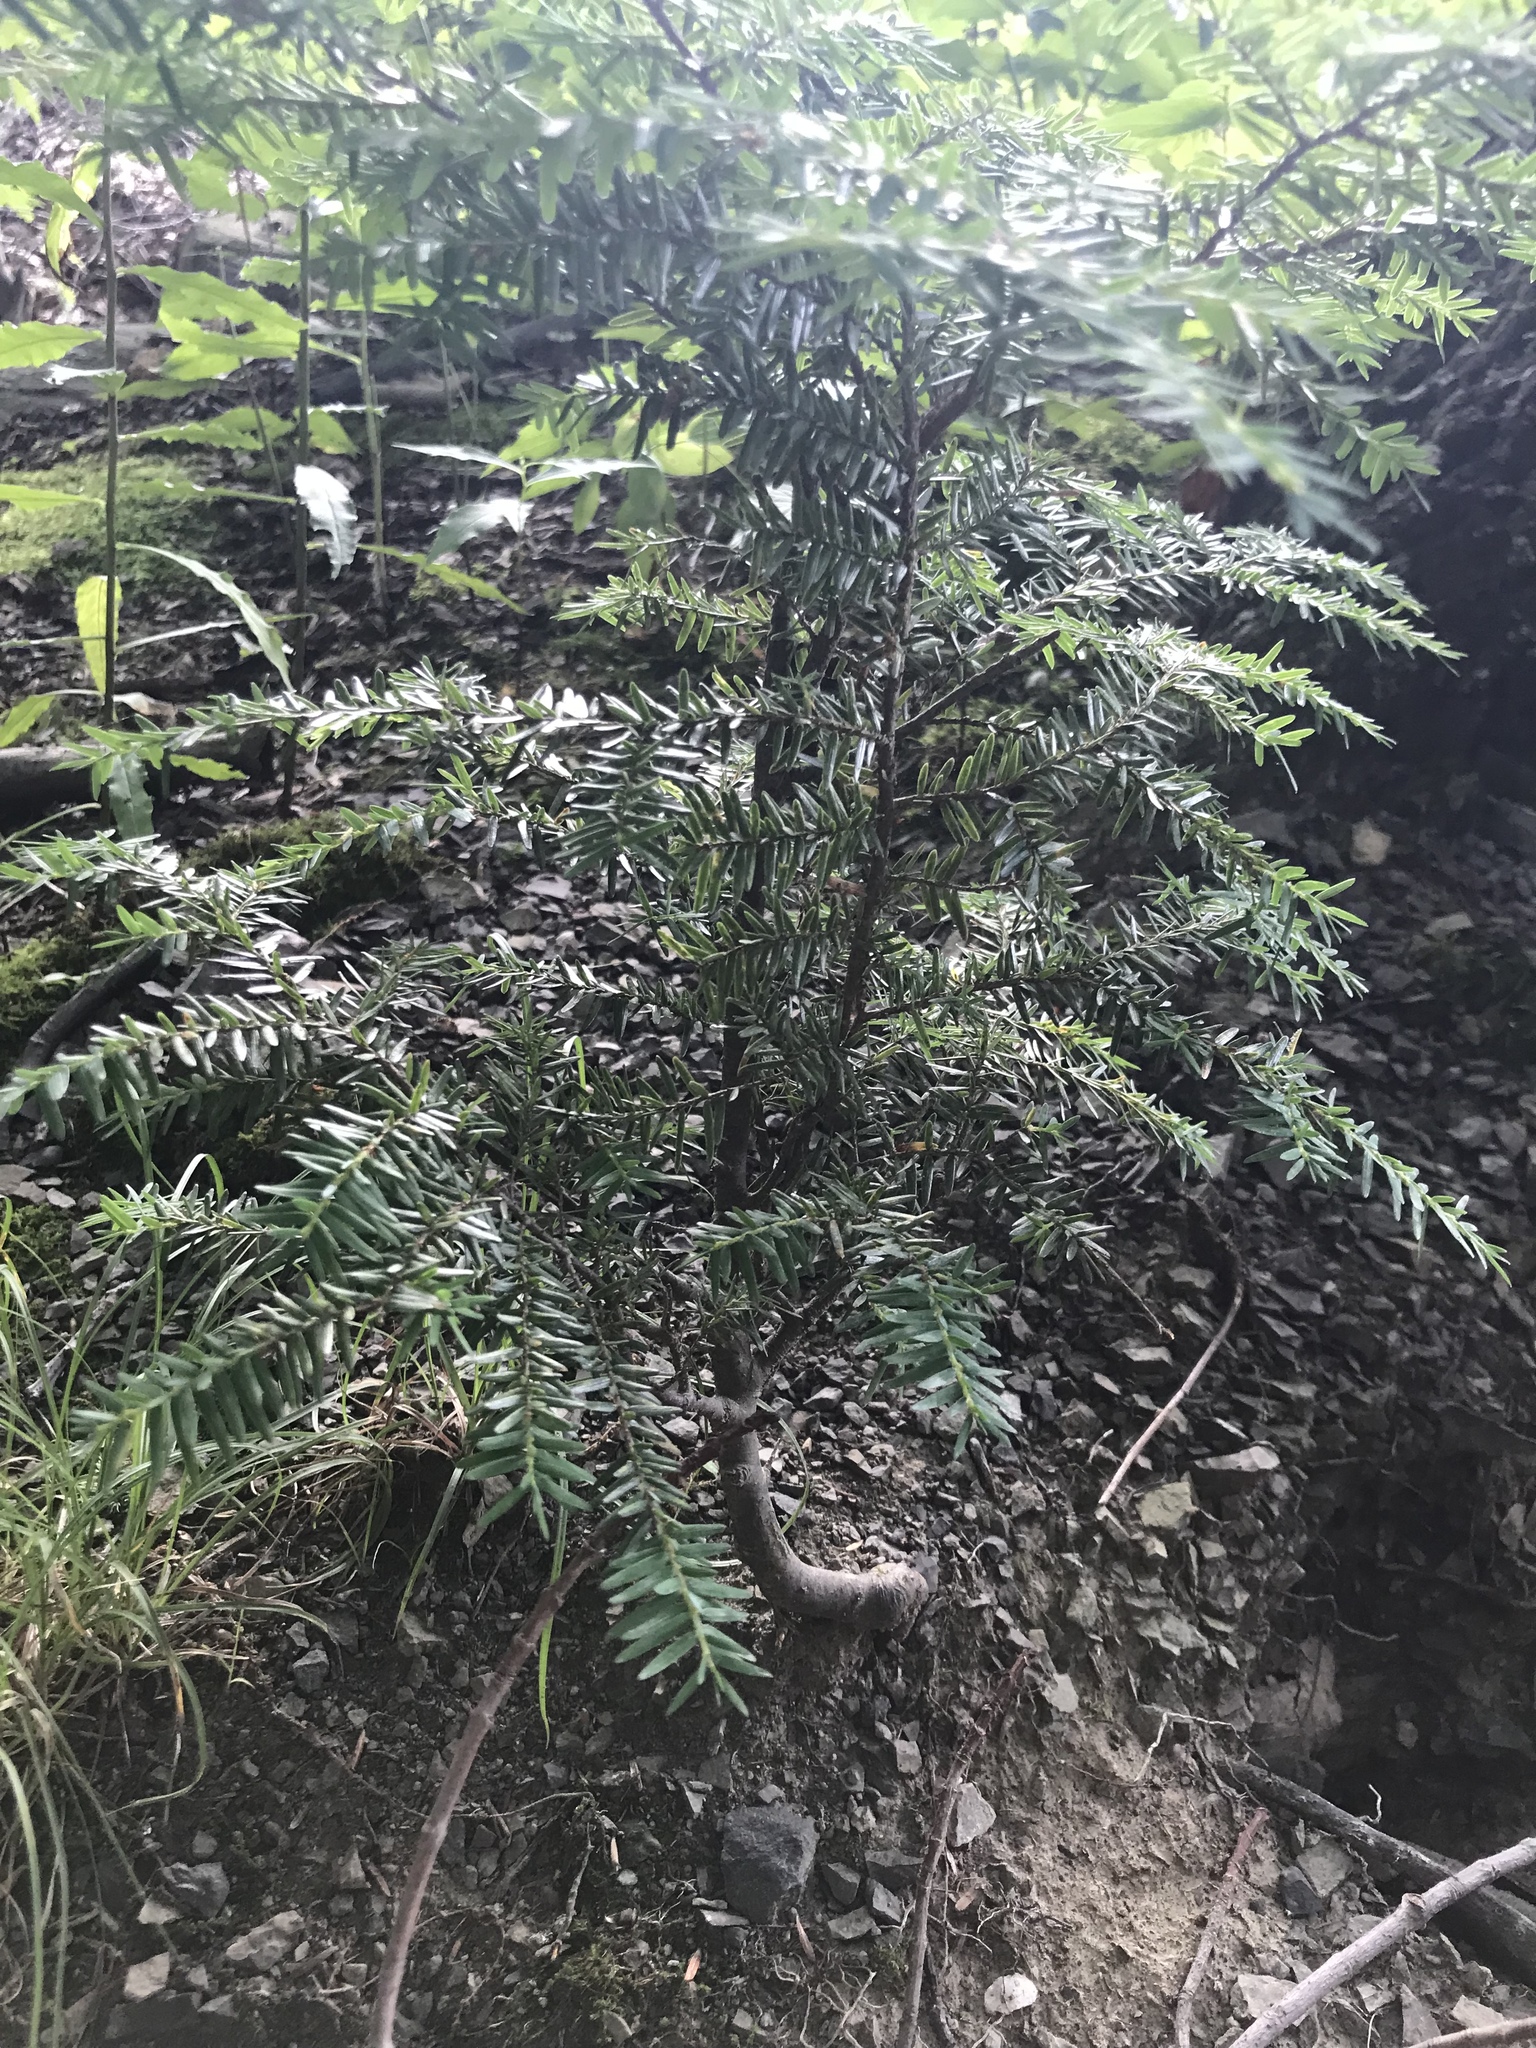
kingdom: Plantae
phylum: Tracheophyta
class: Pinopsida
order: Pinales
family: Pinaceae
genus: Tsuga
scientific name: Tsuga canadensis
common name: Eastern hemlock
